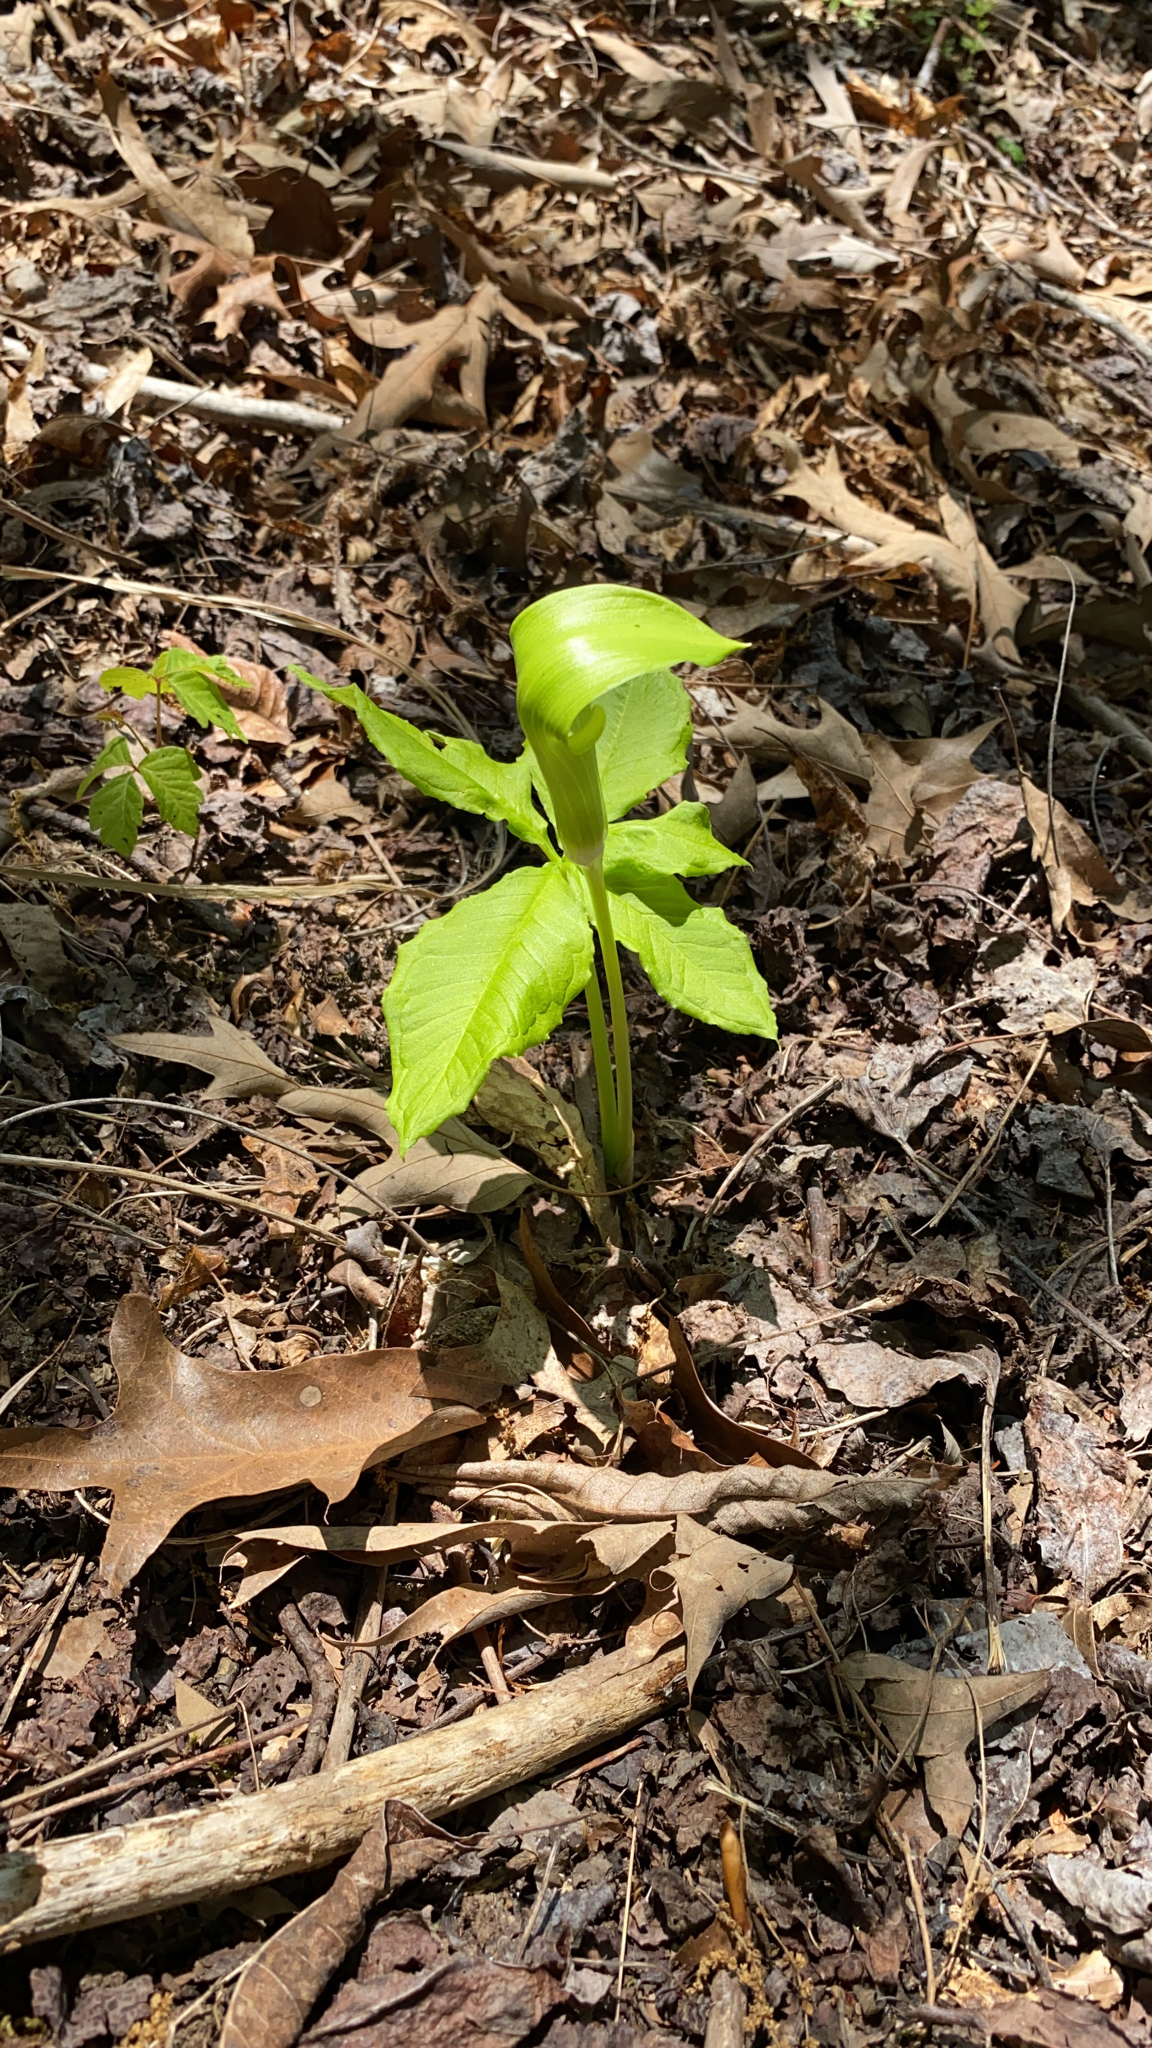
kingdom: Plantae
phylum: Tracheophyta
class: Liliopsida
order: Alismatales
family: Araceae
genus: Arisaema
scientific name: Arisaema triphyllum
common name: Jack-in-the-pulpit
